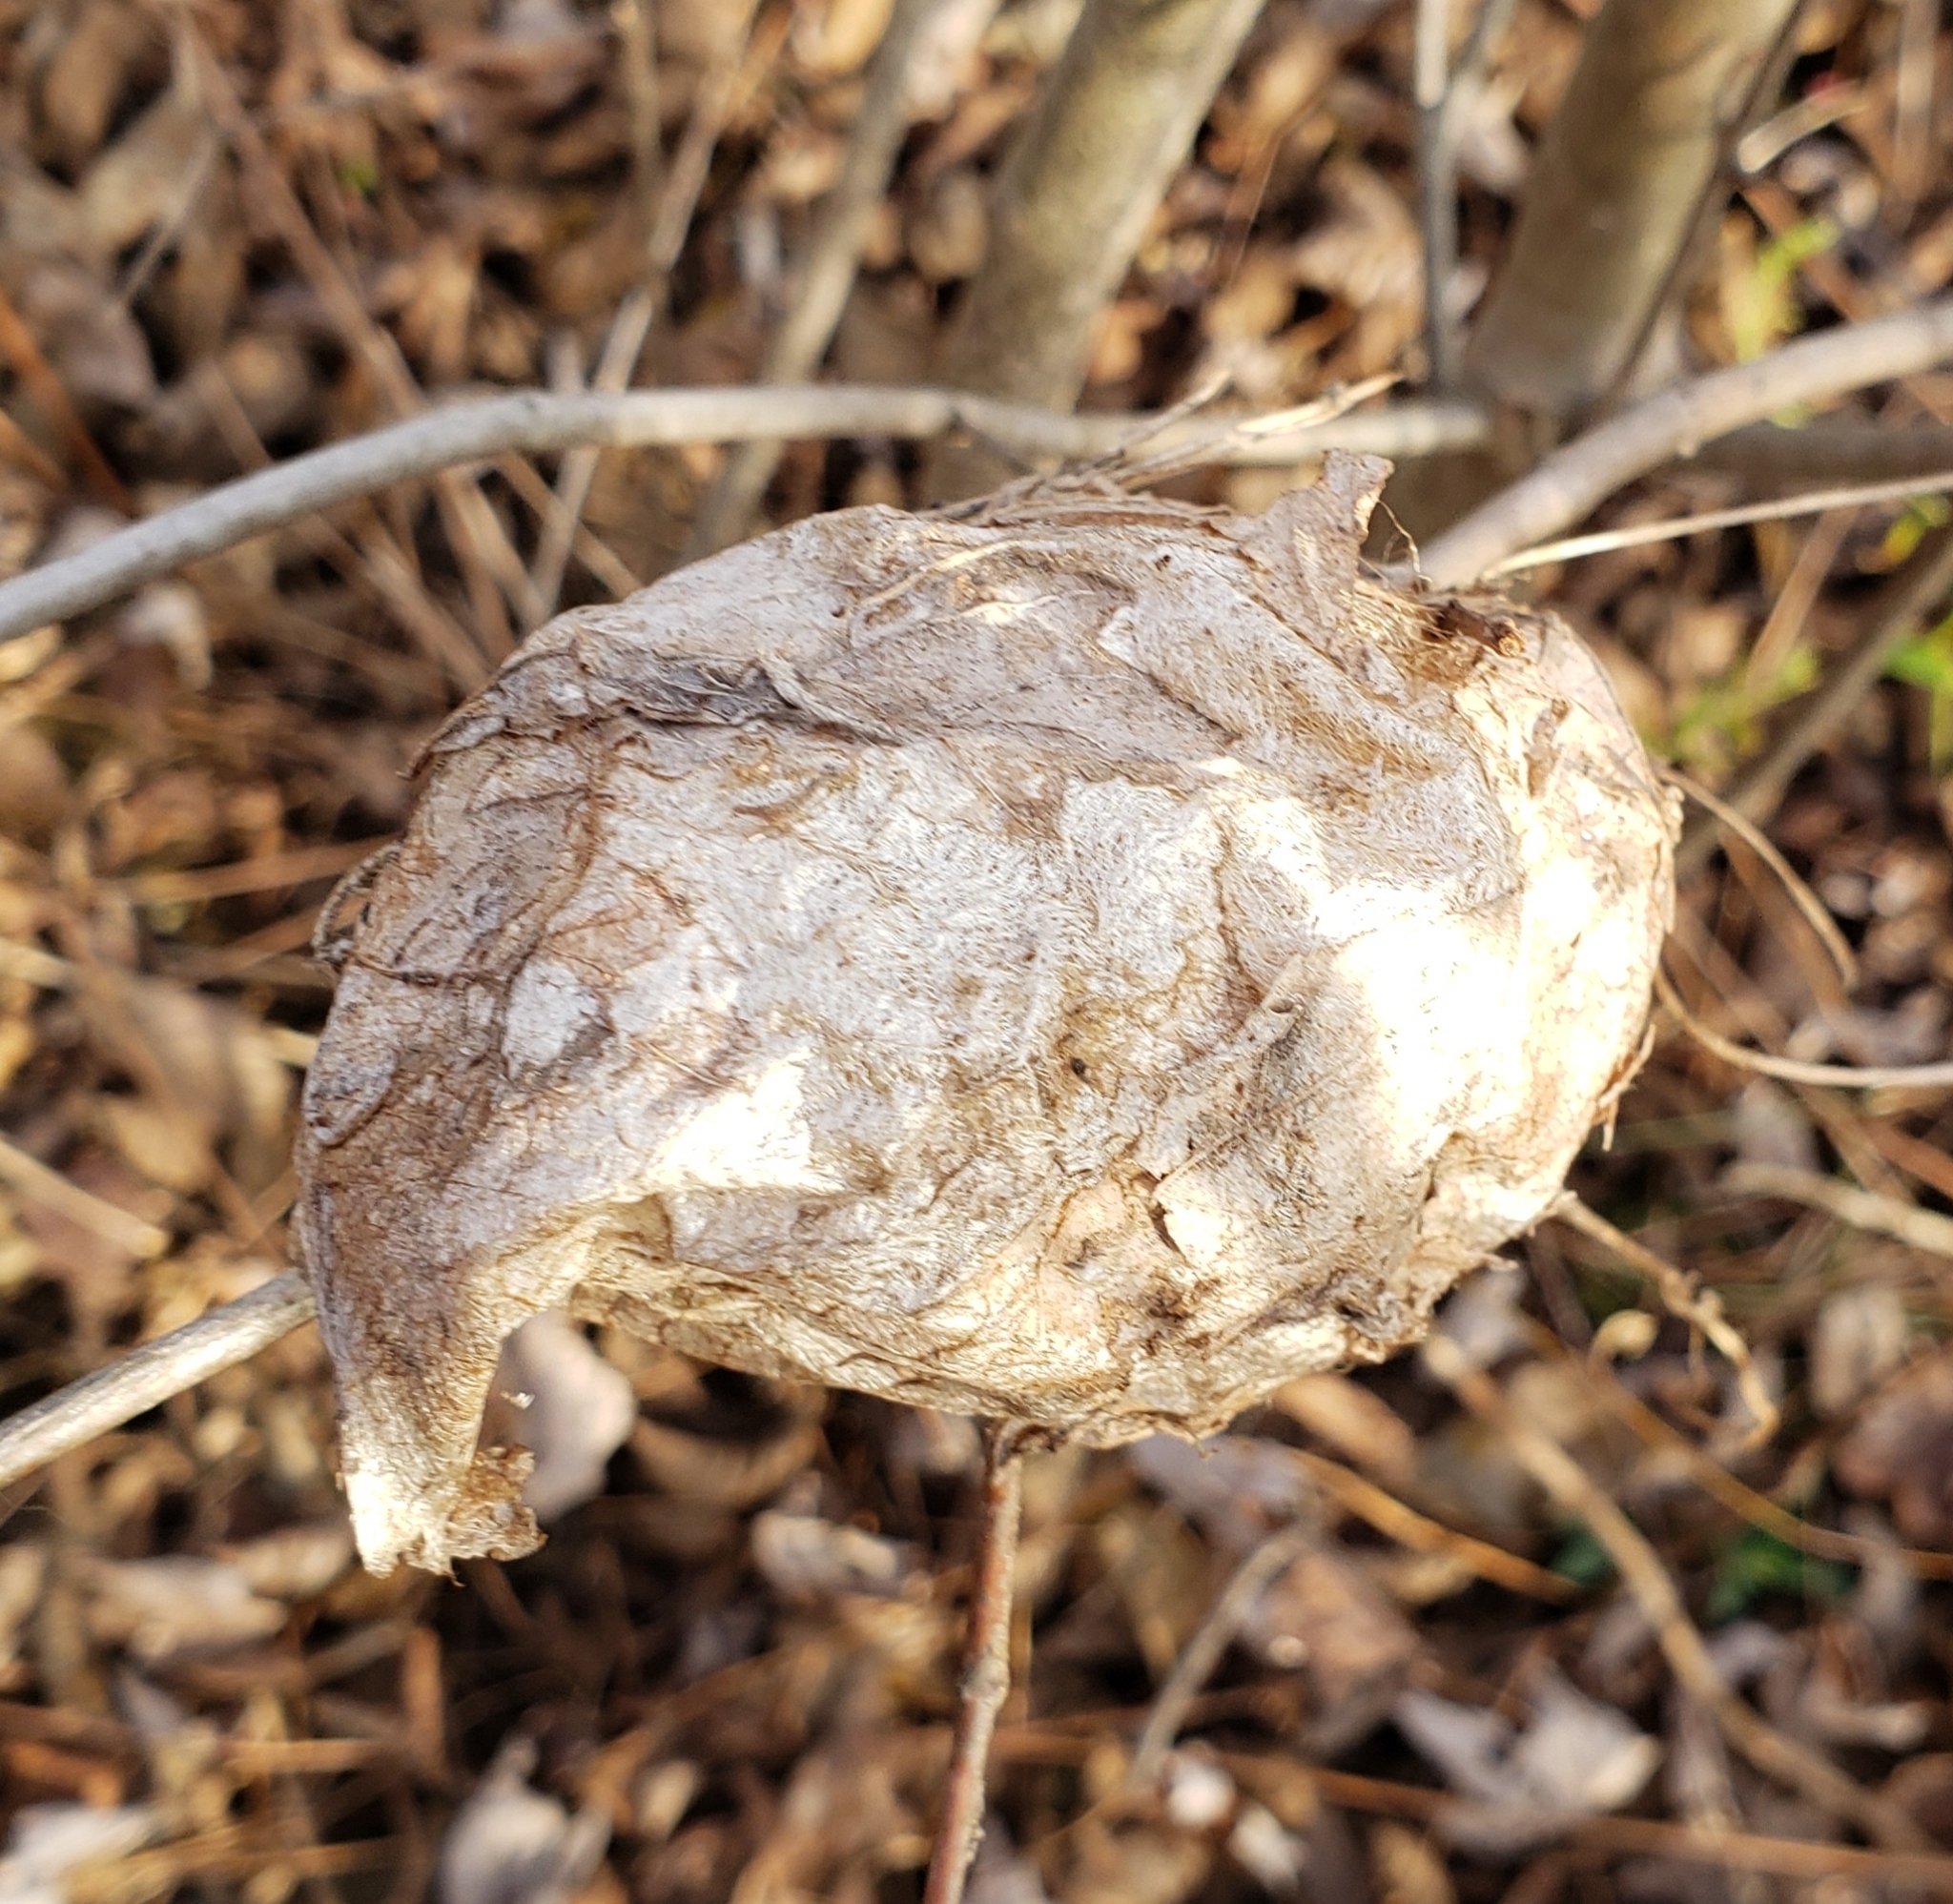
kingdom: Animalia
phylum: Arthropoda
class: Insecta
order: Lepidoptera
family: Saturniidae
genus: Hyalophora
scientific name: Hyalophora cecropia
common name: Cecropia silkmoth
